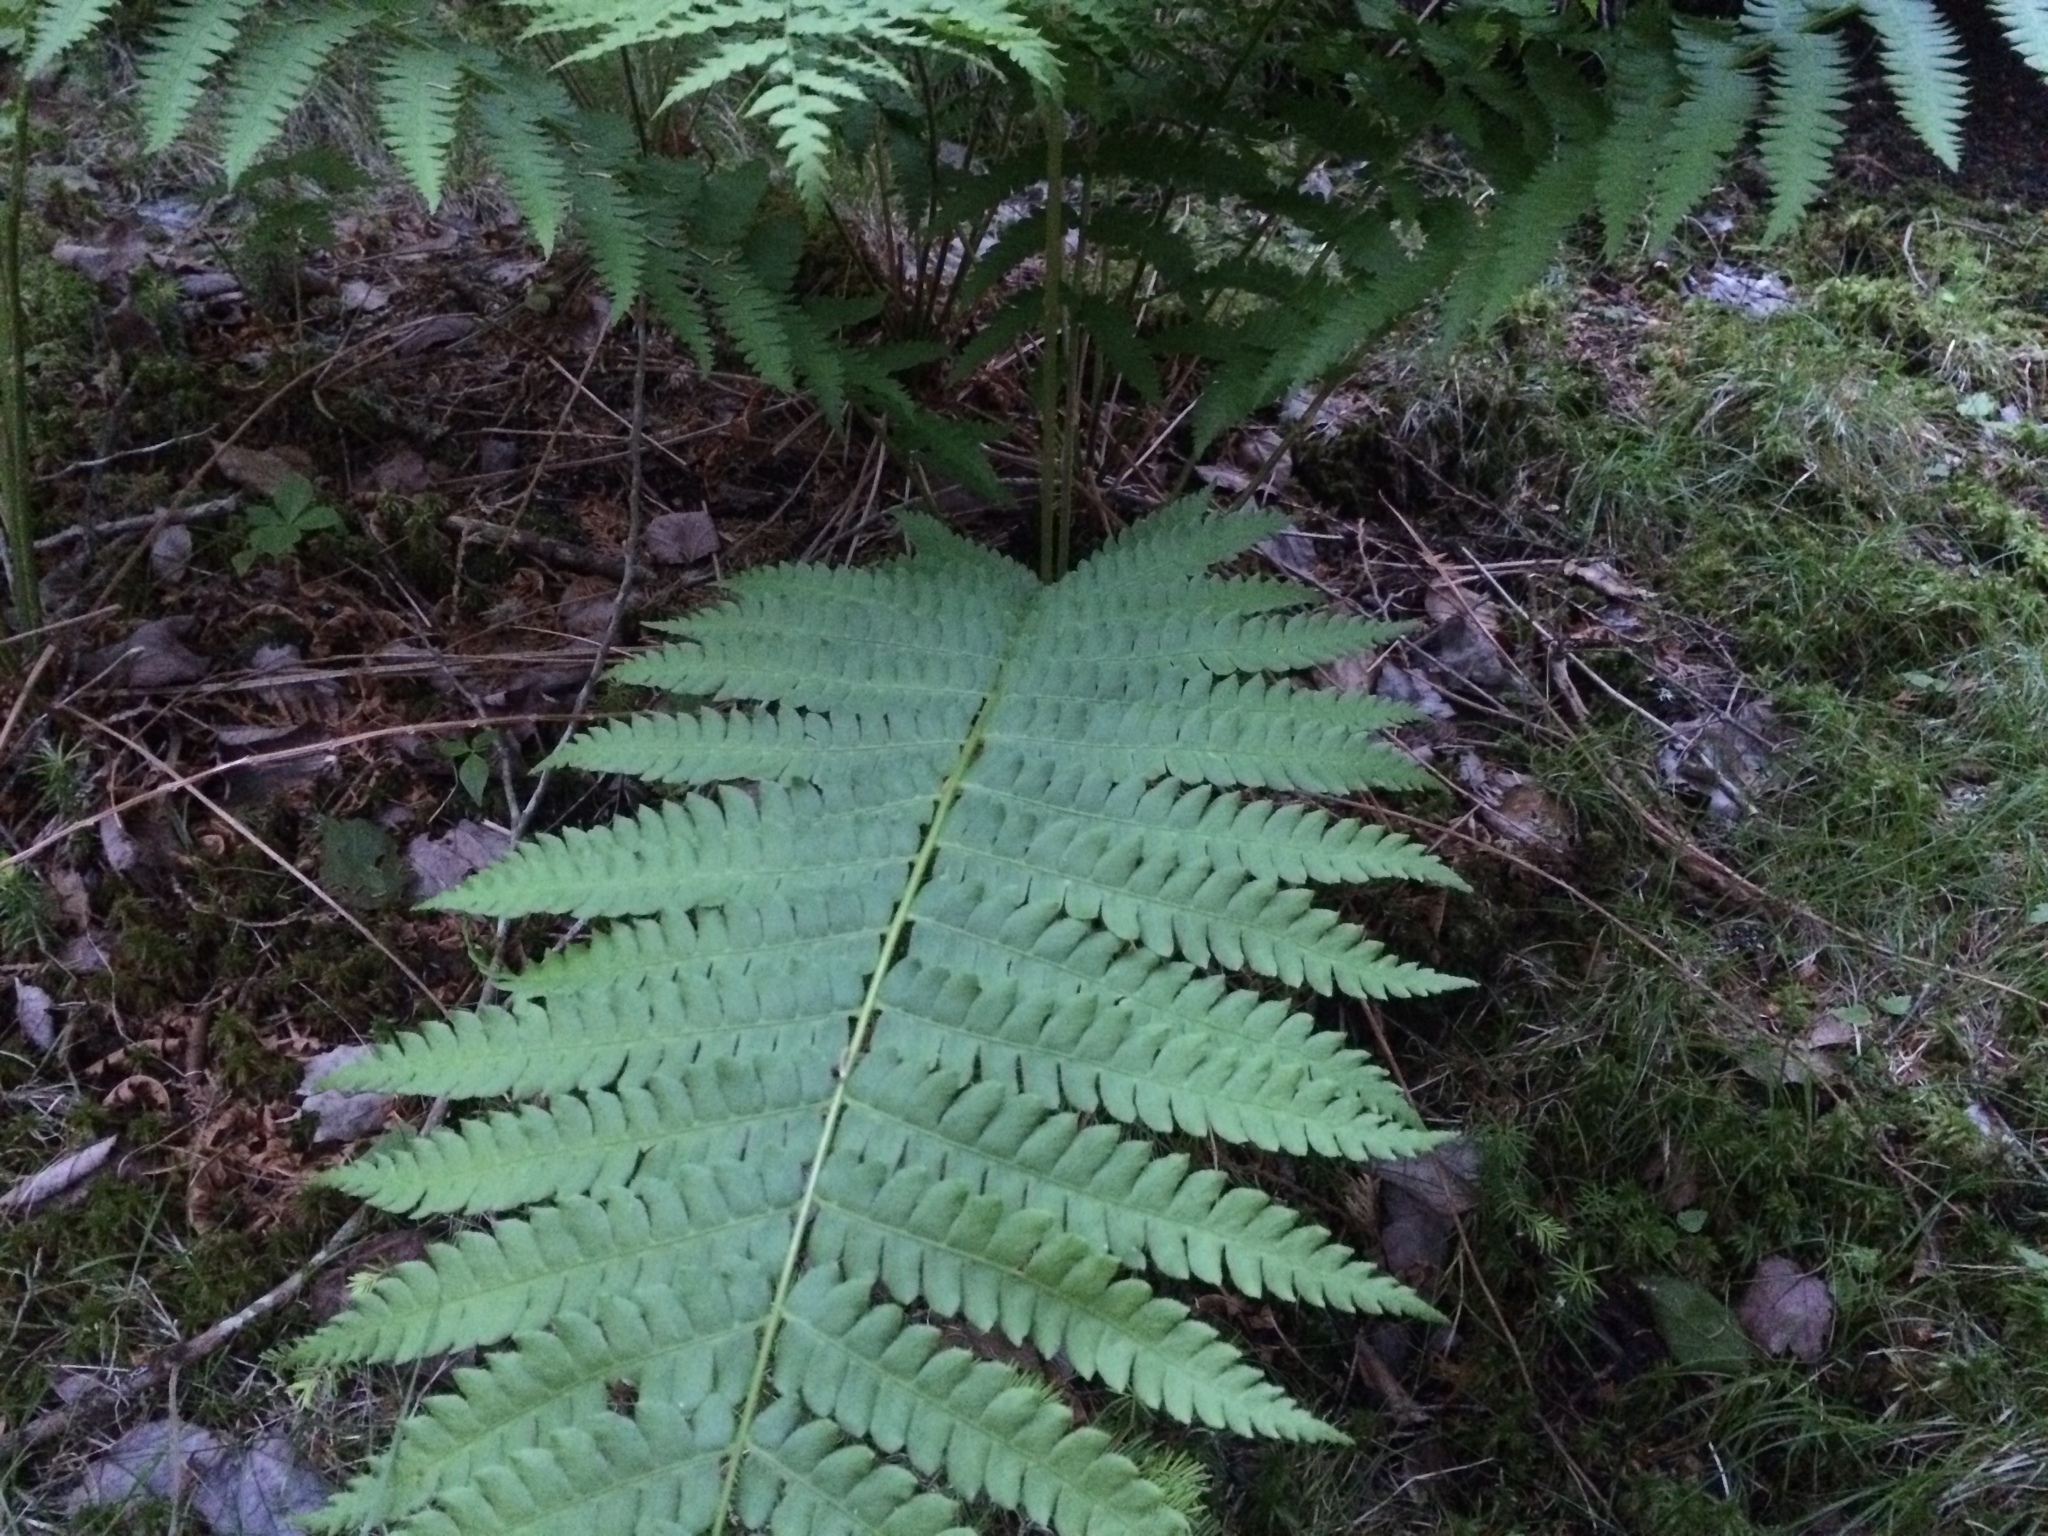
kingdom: Plantae
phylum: Tracheophyta
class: Polypodiopsida
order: Osmundales
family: Osmundaceae
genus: Osmundastrum
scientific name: Osmundastrum cinnamomeum
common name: Cinnamon fern
